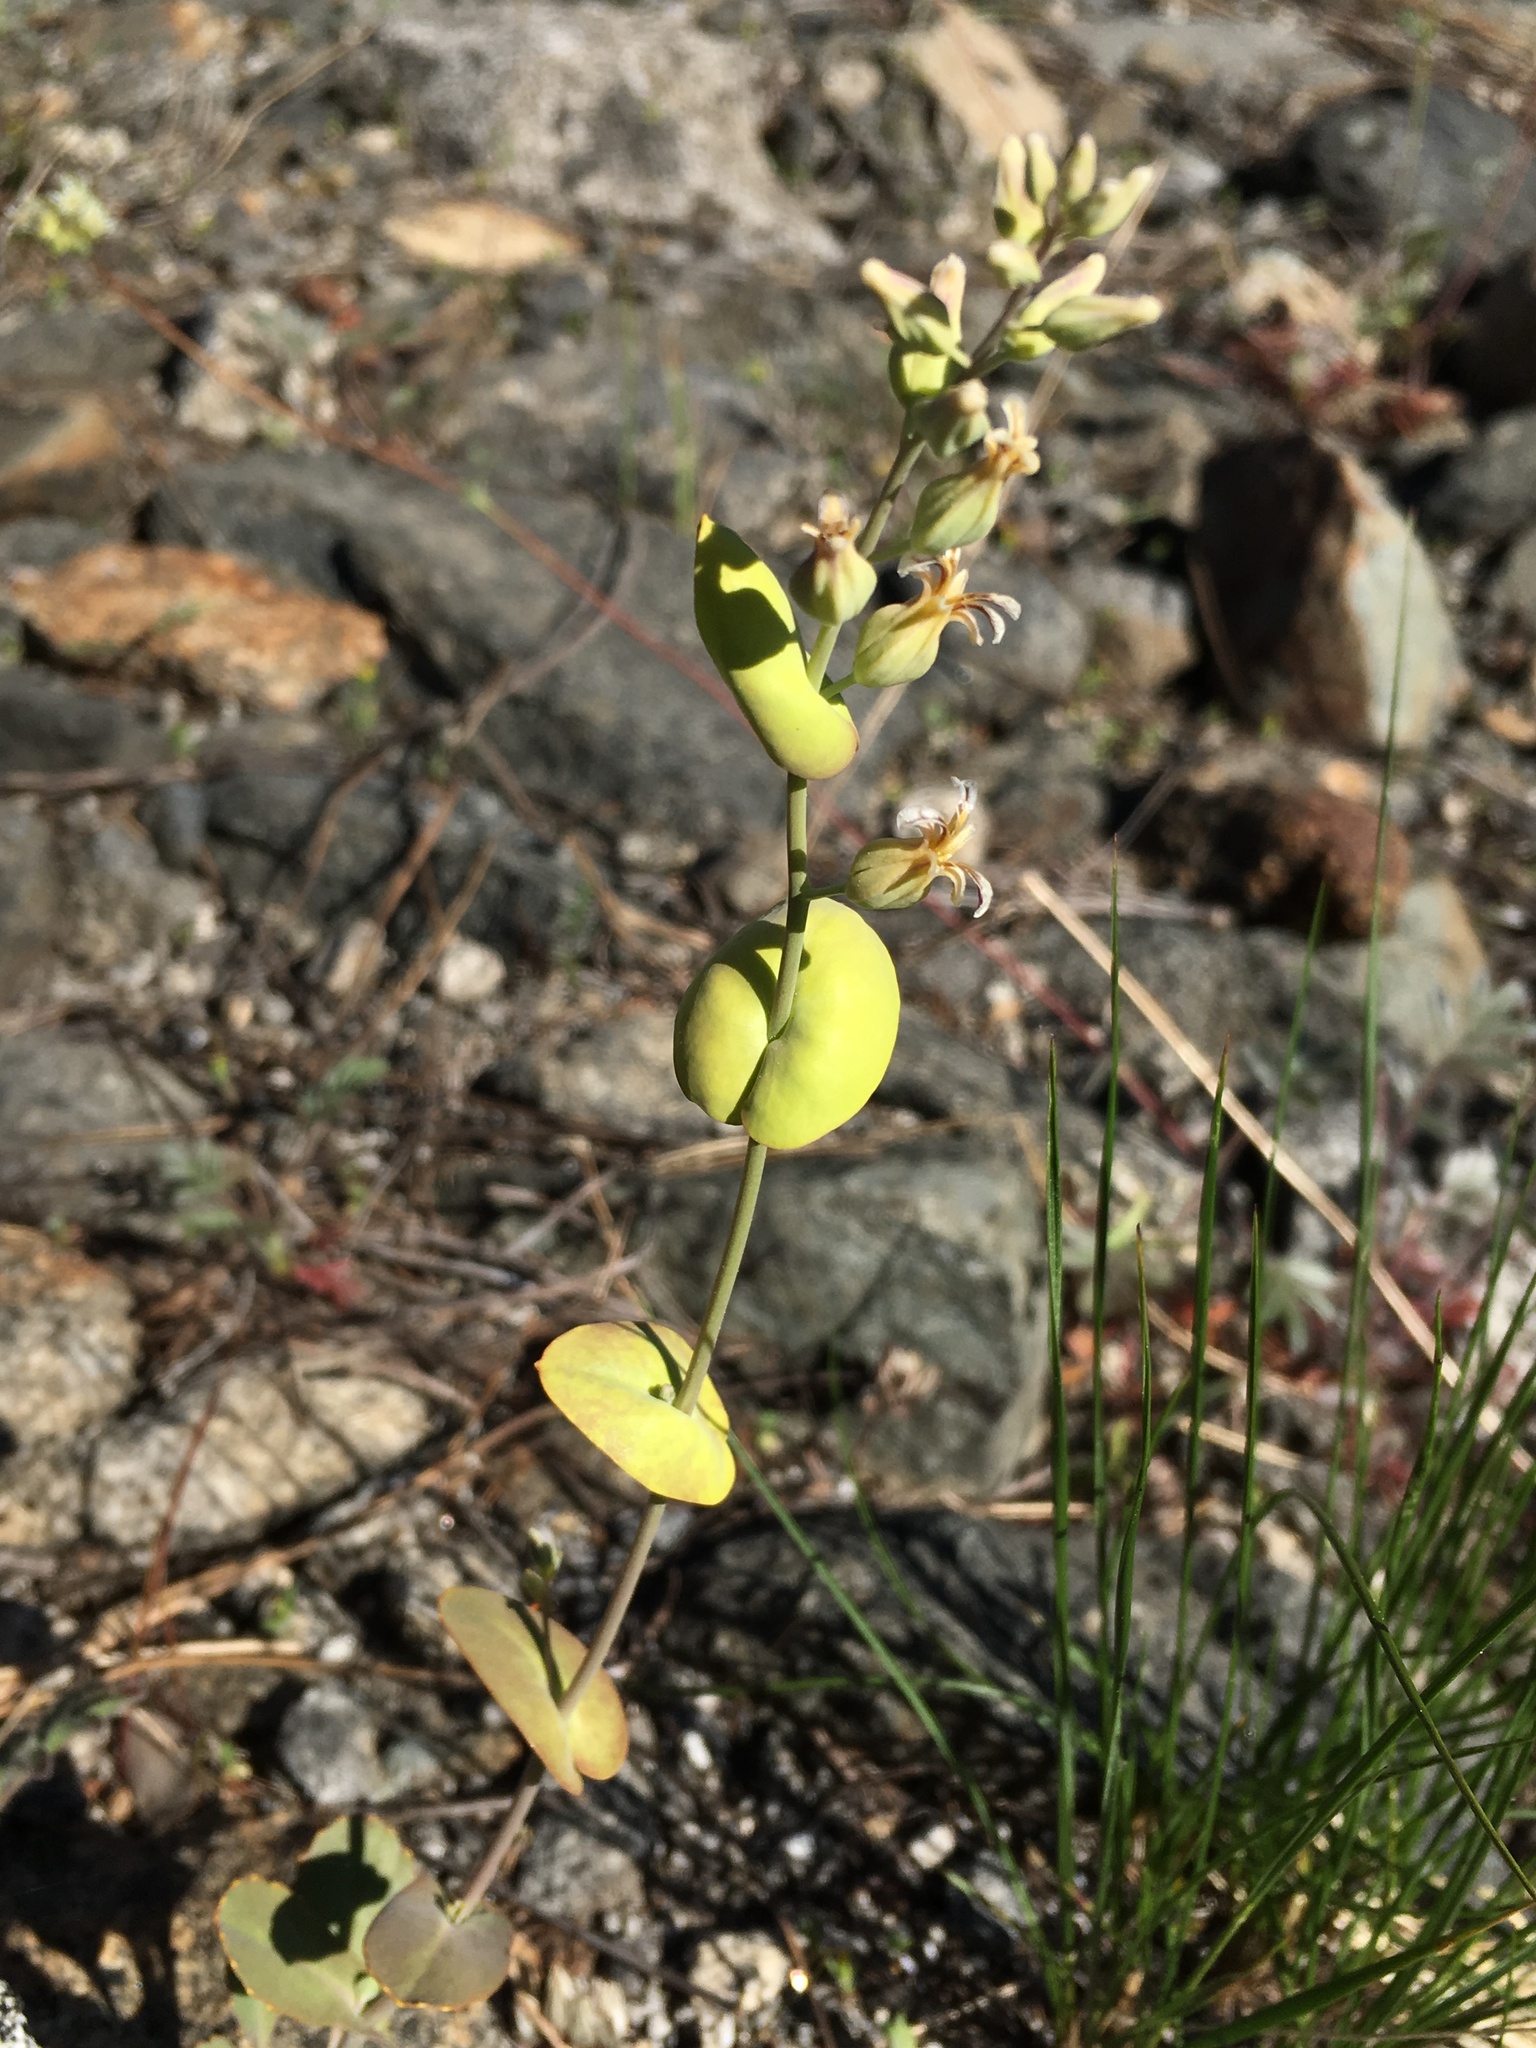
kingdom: Plantae
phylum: Tracheophyta
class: Magnoliopsida
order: Brassicales
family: Brassicaceae
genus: Streptanthus
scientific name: Streptanthus tortuosus
